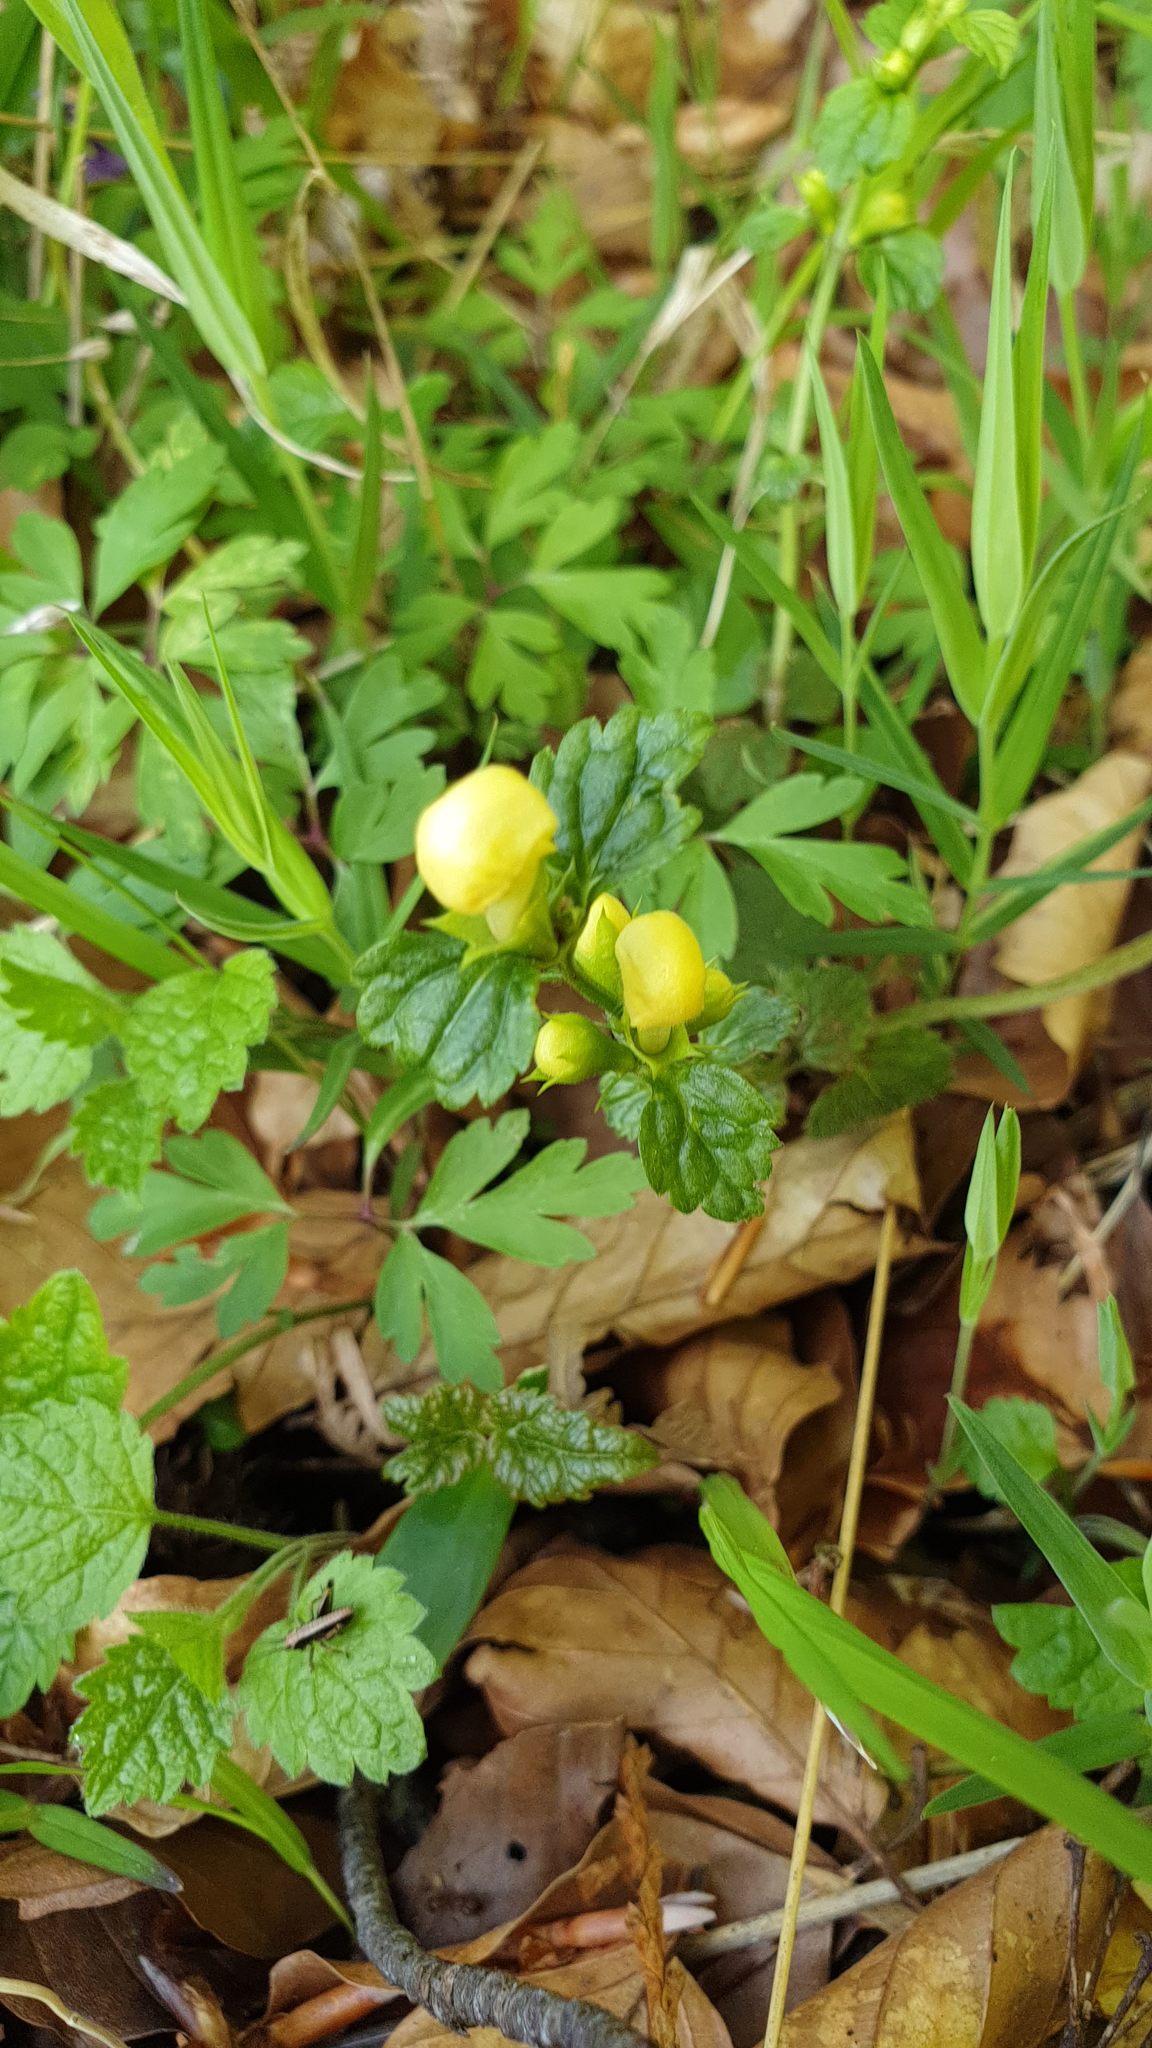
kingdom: Plantae
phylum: Tracheophyta
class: Magnoliopsida
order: Lamiales
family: Lamiaceae
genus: Lamium
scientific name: Lamium galeobdolon
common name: Yellow archangel
